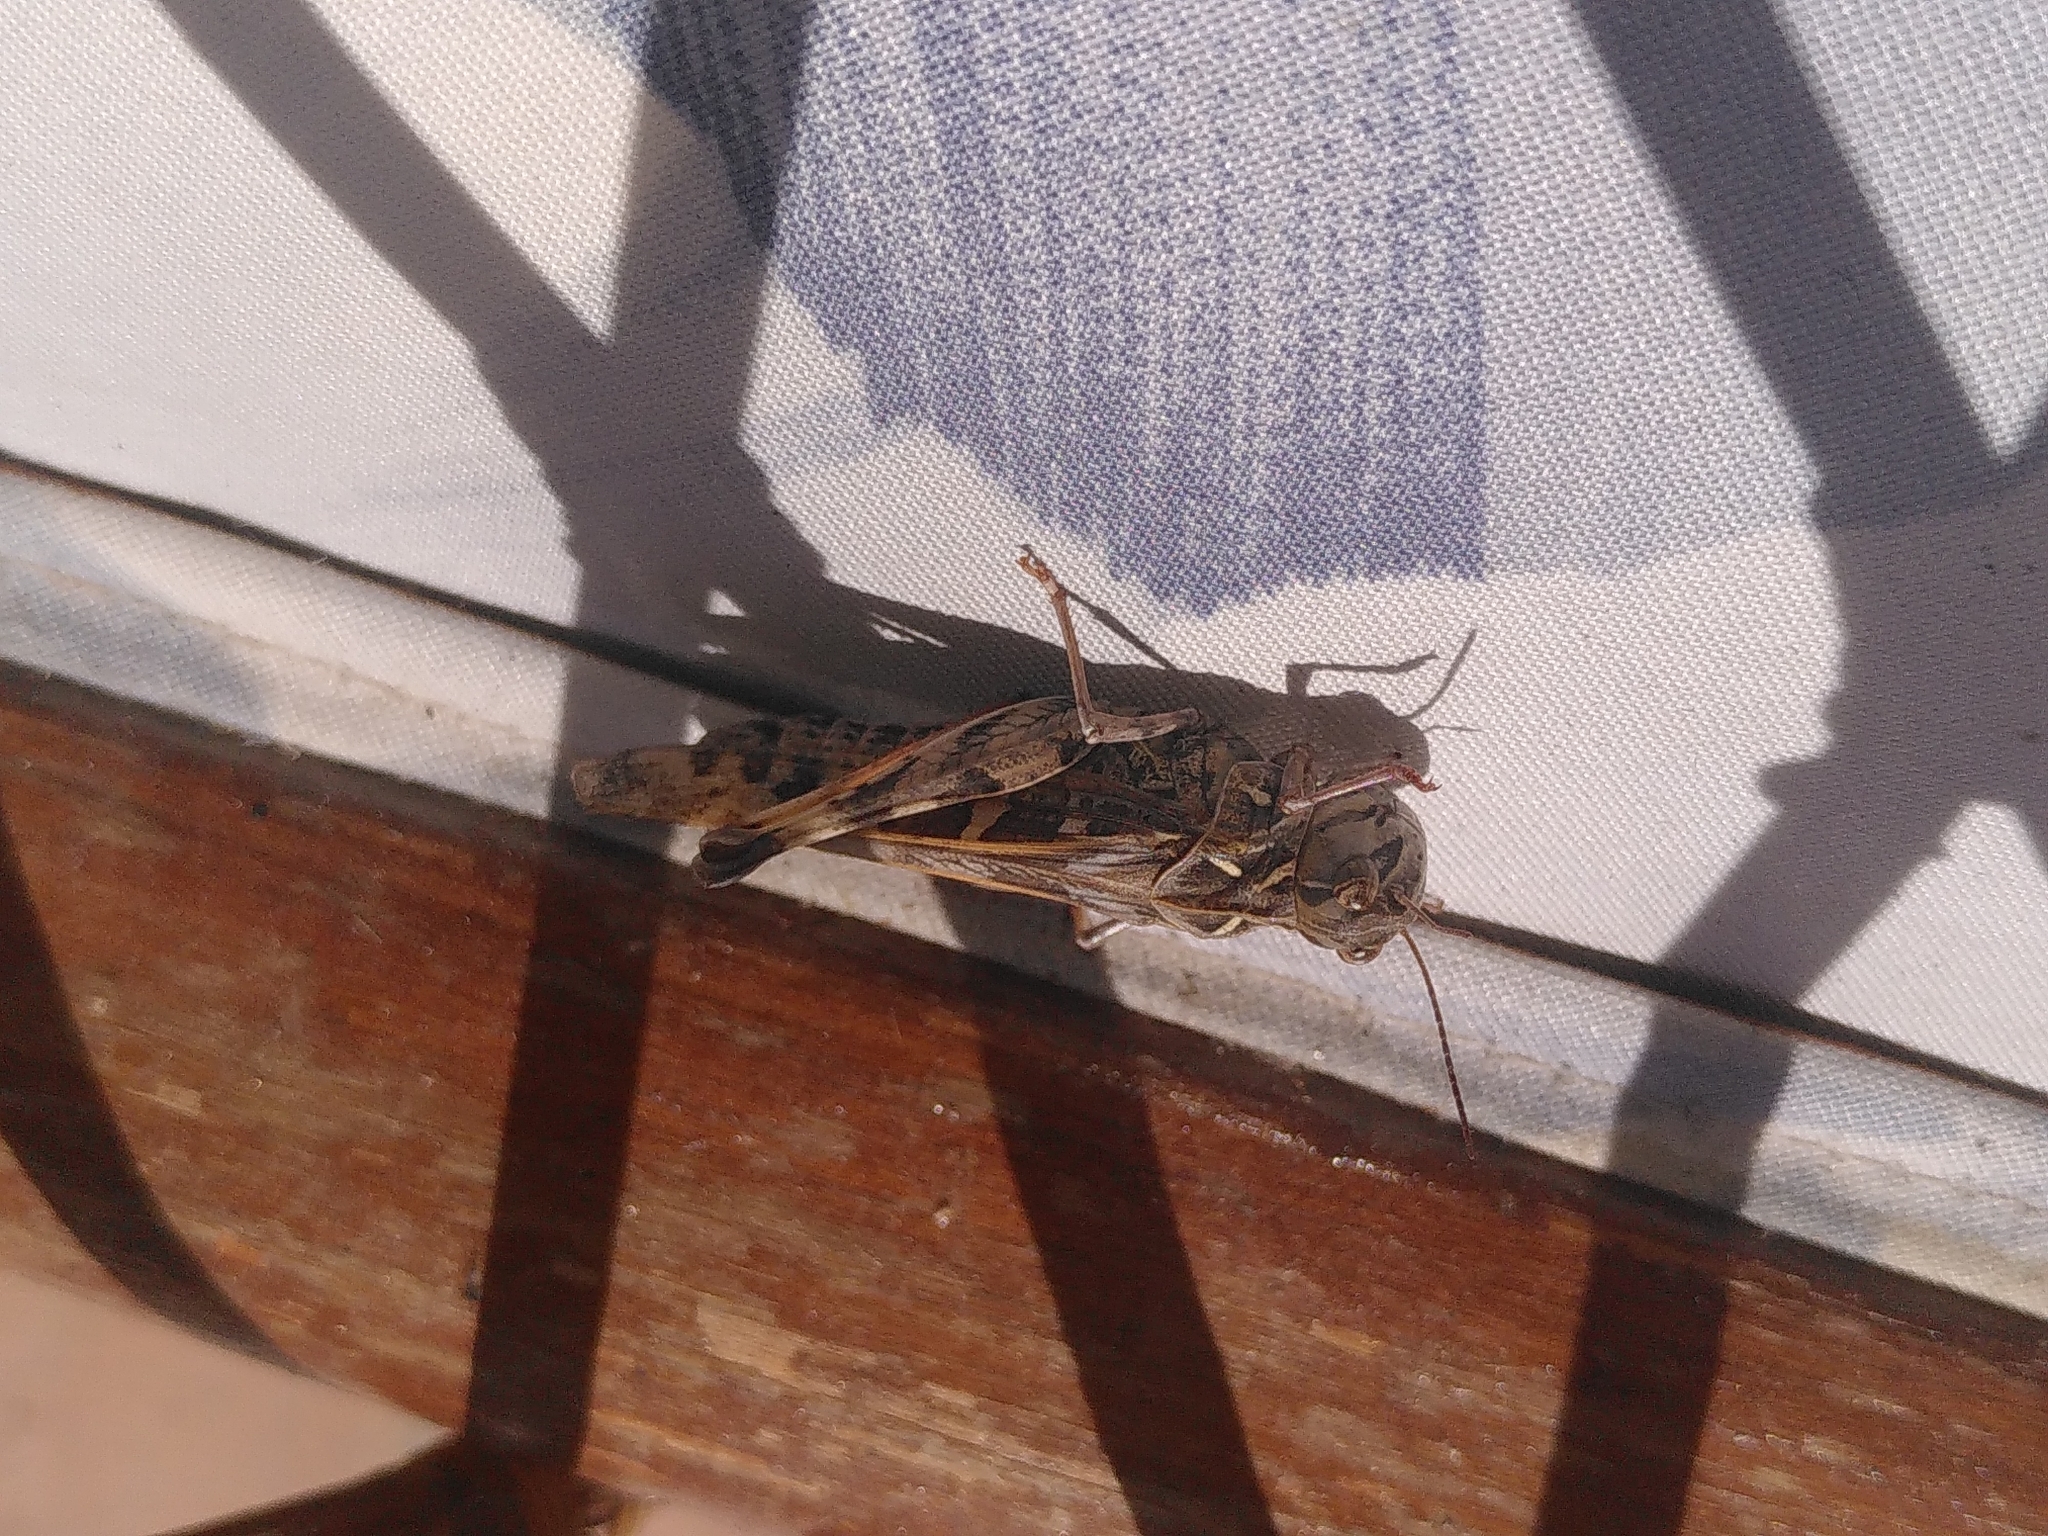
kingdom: Animalia
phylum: Arthropoda
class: Insecta
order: Orthoptera
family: Acrididae
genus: Oedaleus
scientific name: Oedaleus decorus
